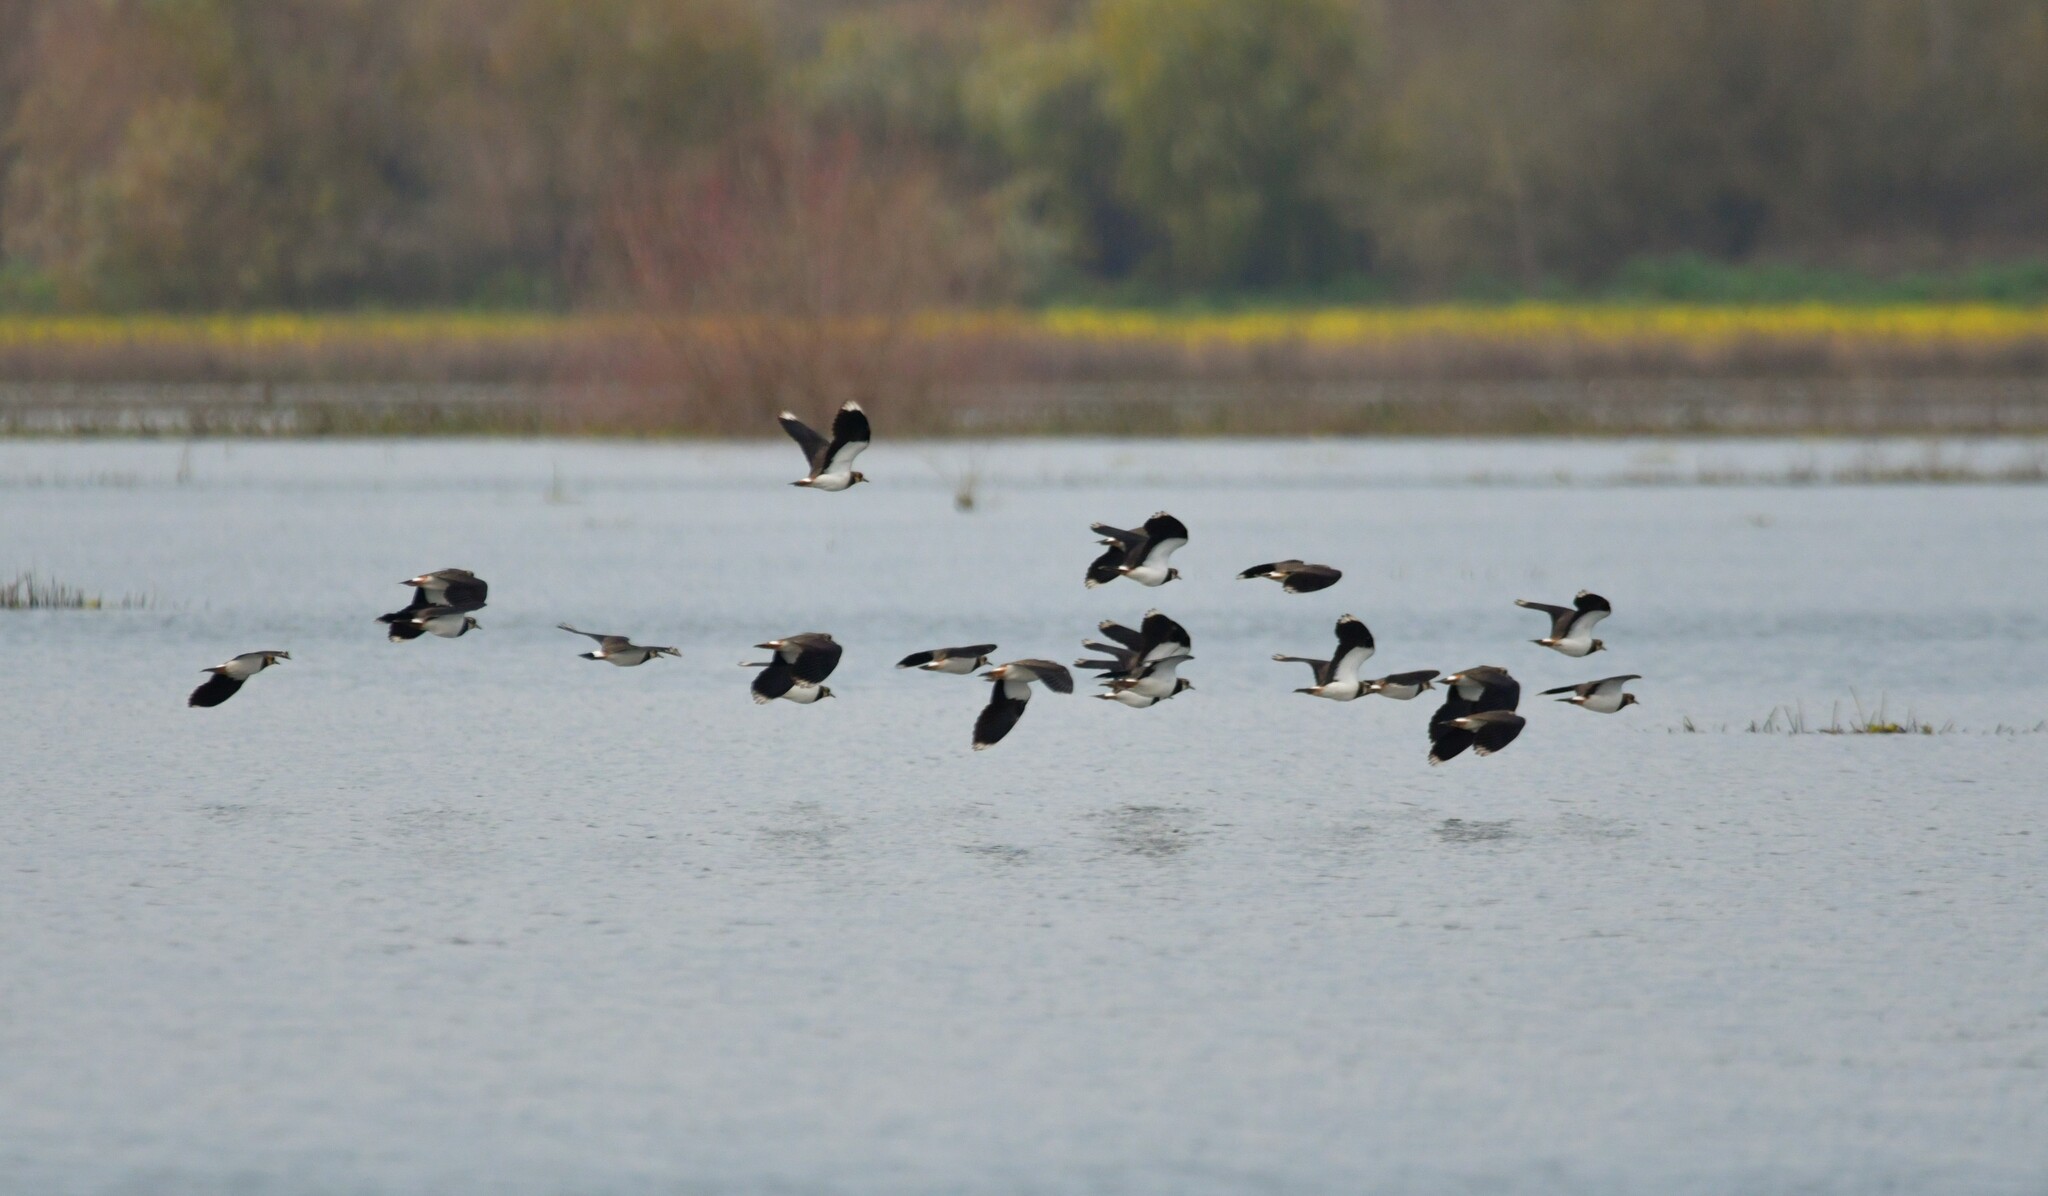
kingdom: Animalia
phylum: Chordata
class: Aves
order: Charadriiformes
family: Charadriidae
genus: Vanellus
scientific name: Vanellus vanellus
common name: Northern lapwing
